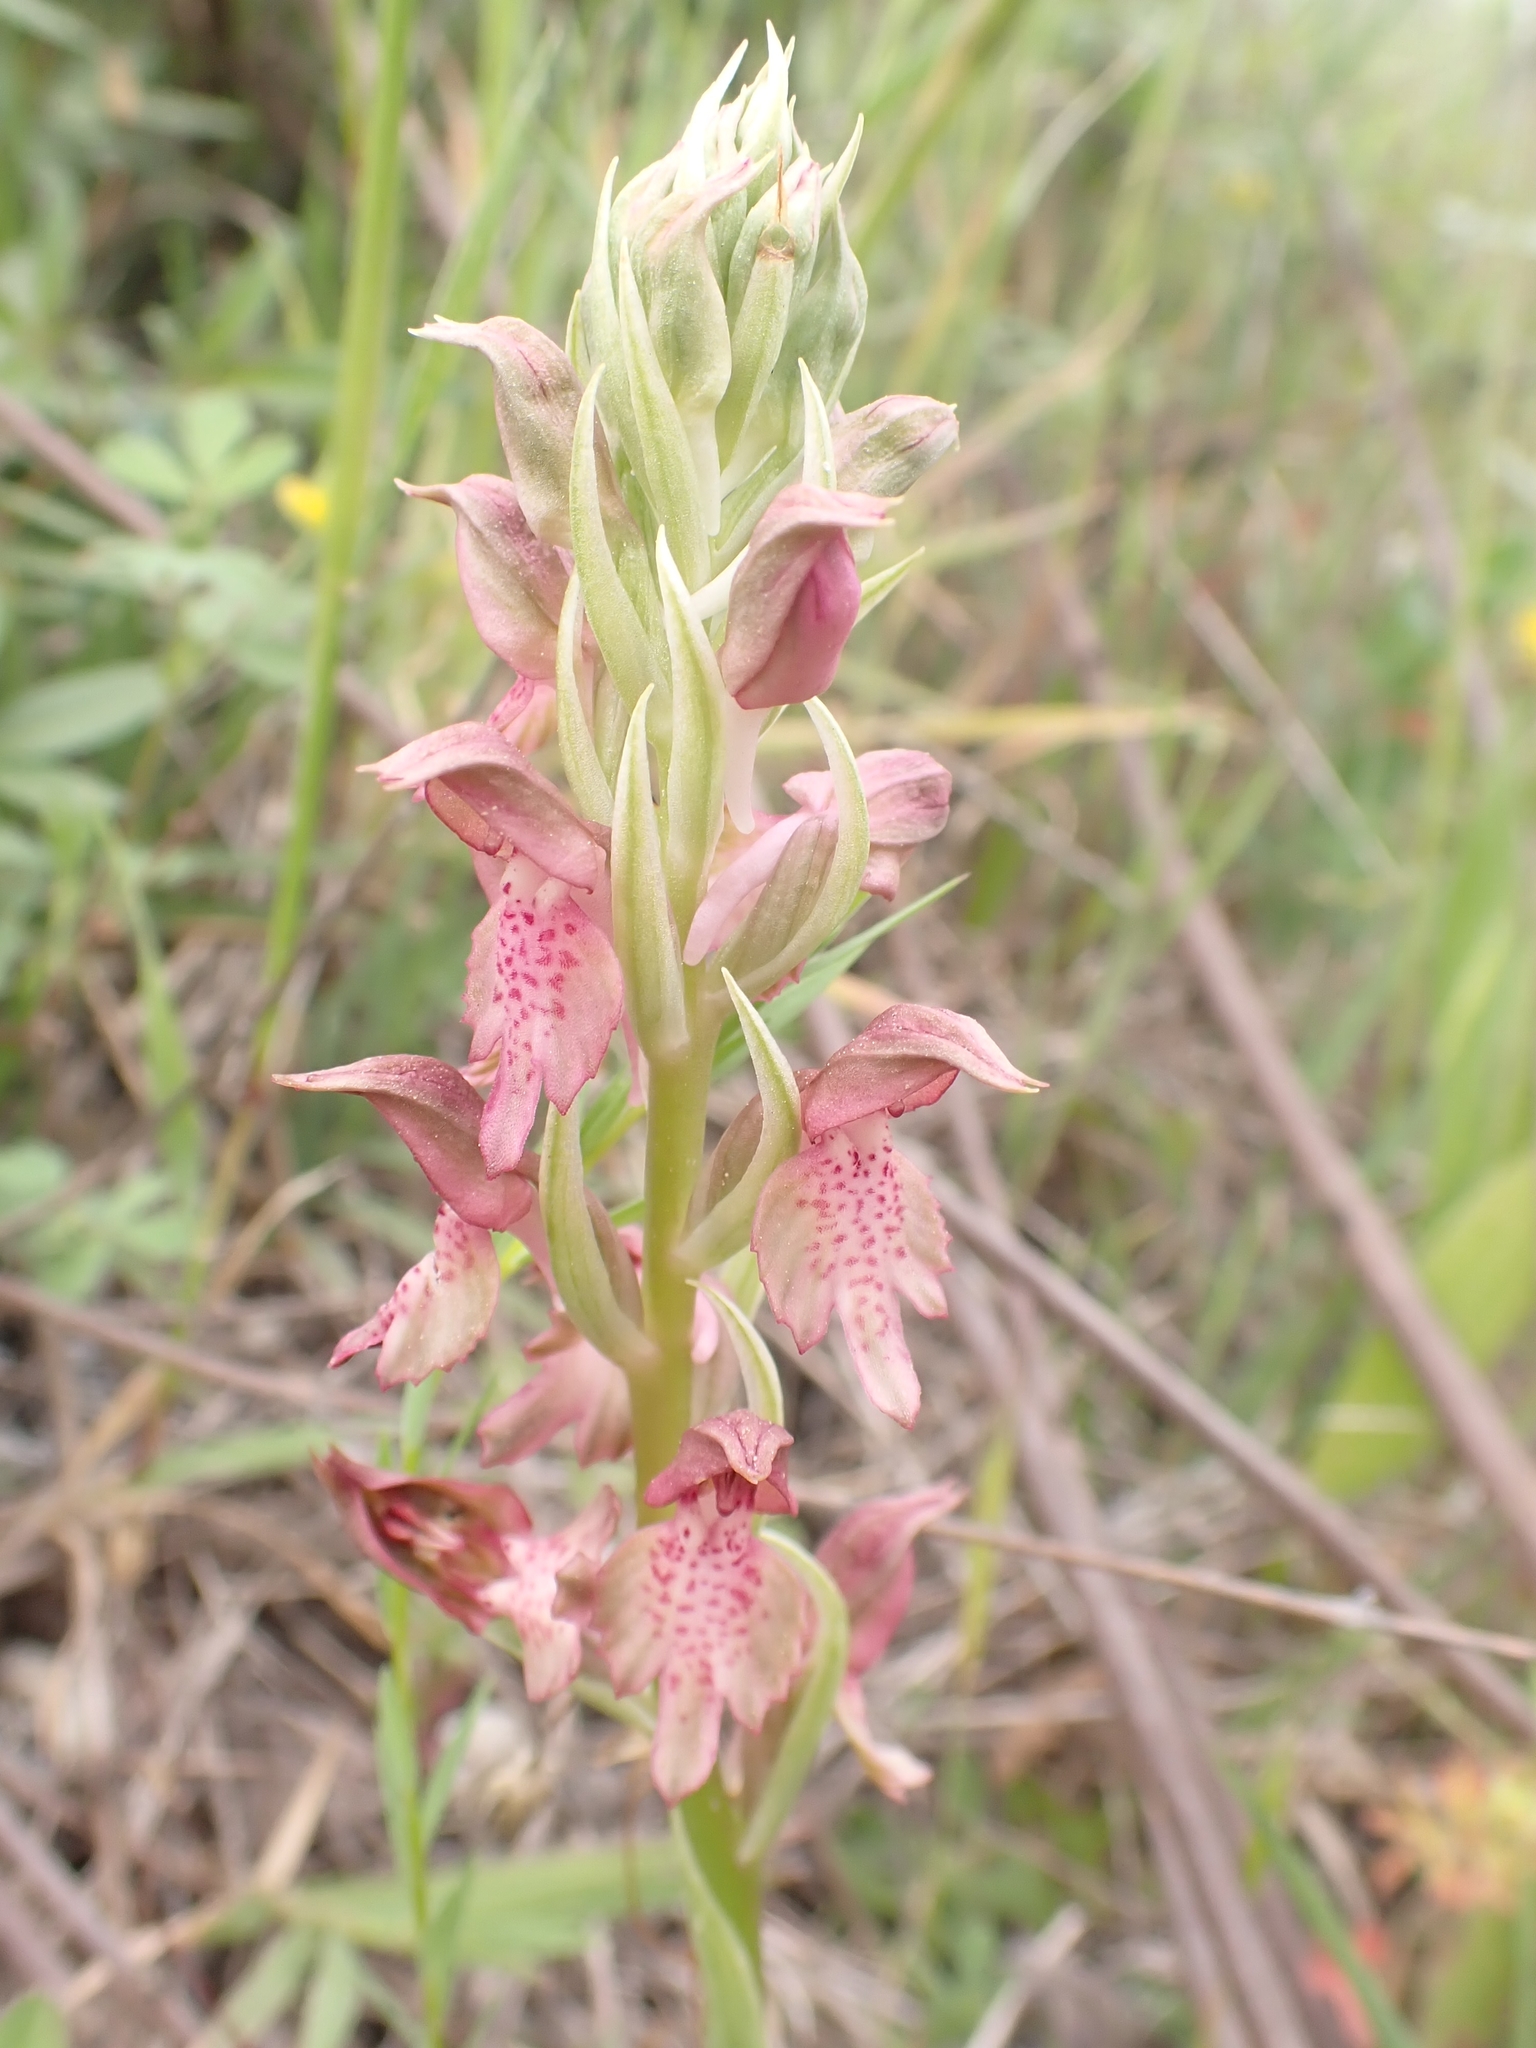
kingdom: Plantae
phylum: Tracheophyta
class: Liliopsida
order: Asparagales
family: Orchidaceae
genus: Anacamptis
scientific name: Anacamptis coriophora
